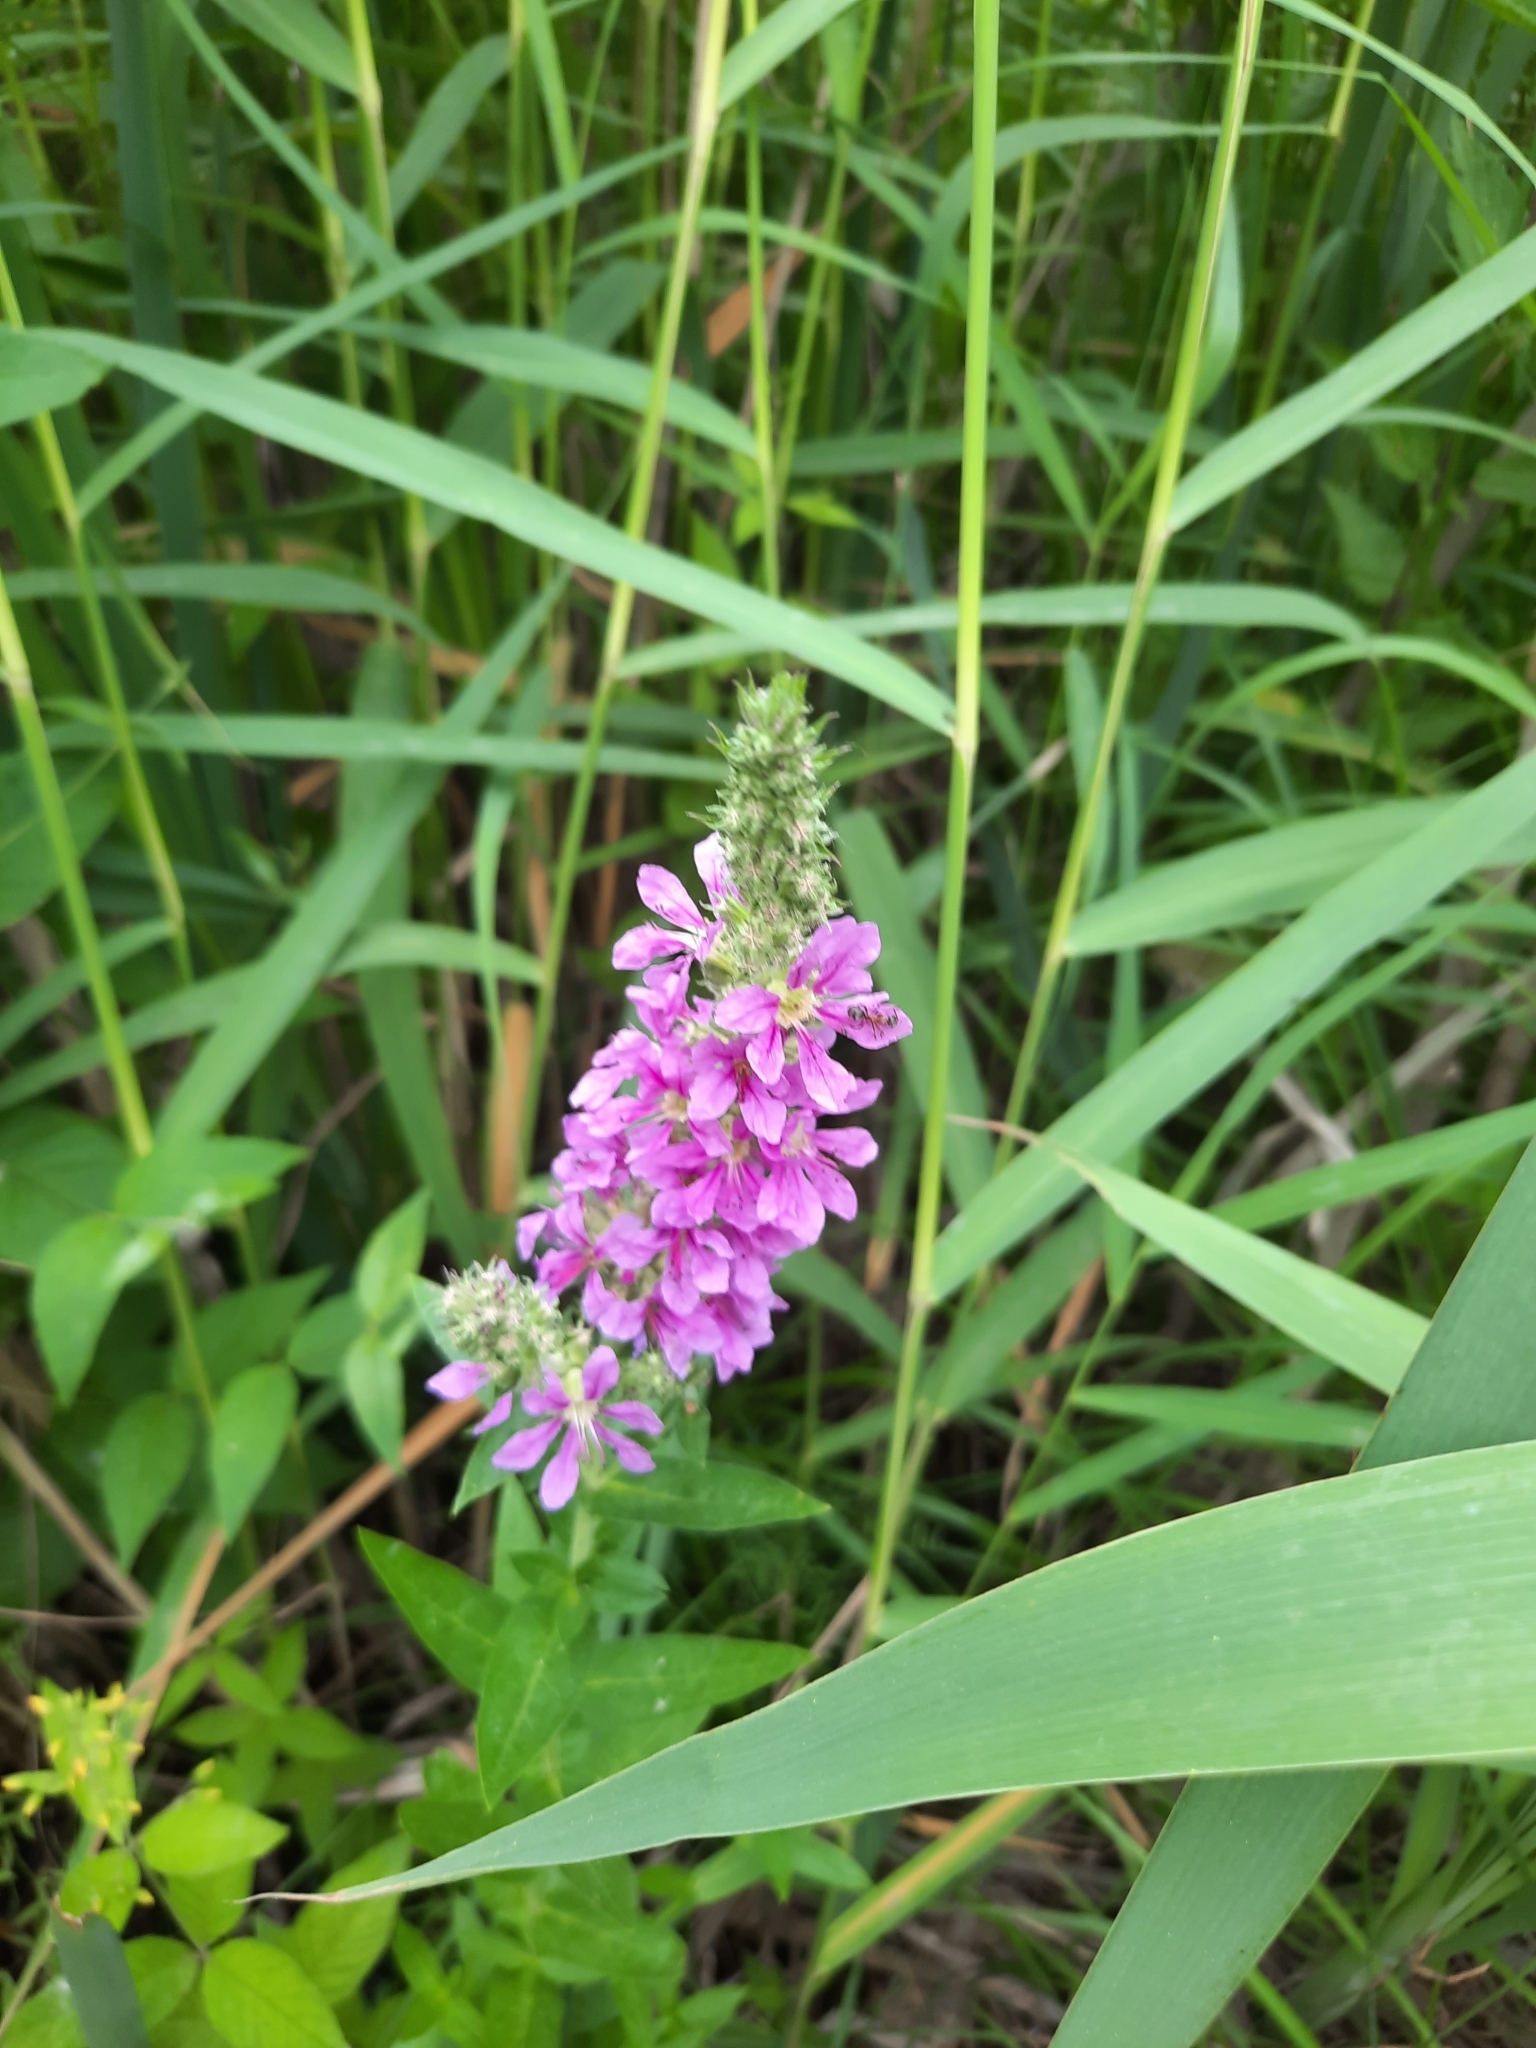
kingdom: Plantae
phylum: Tracheophyta
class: Magnoliopsida
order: Myrtales
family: Lythraceae
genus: Lythrum
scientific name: Lythrum salicaria
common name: Purple loosestrife
